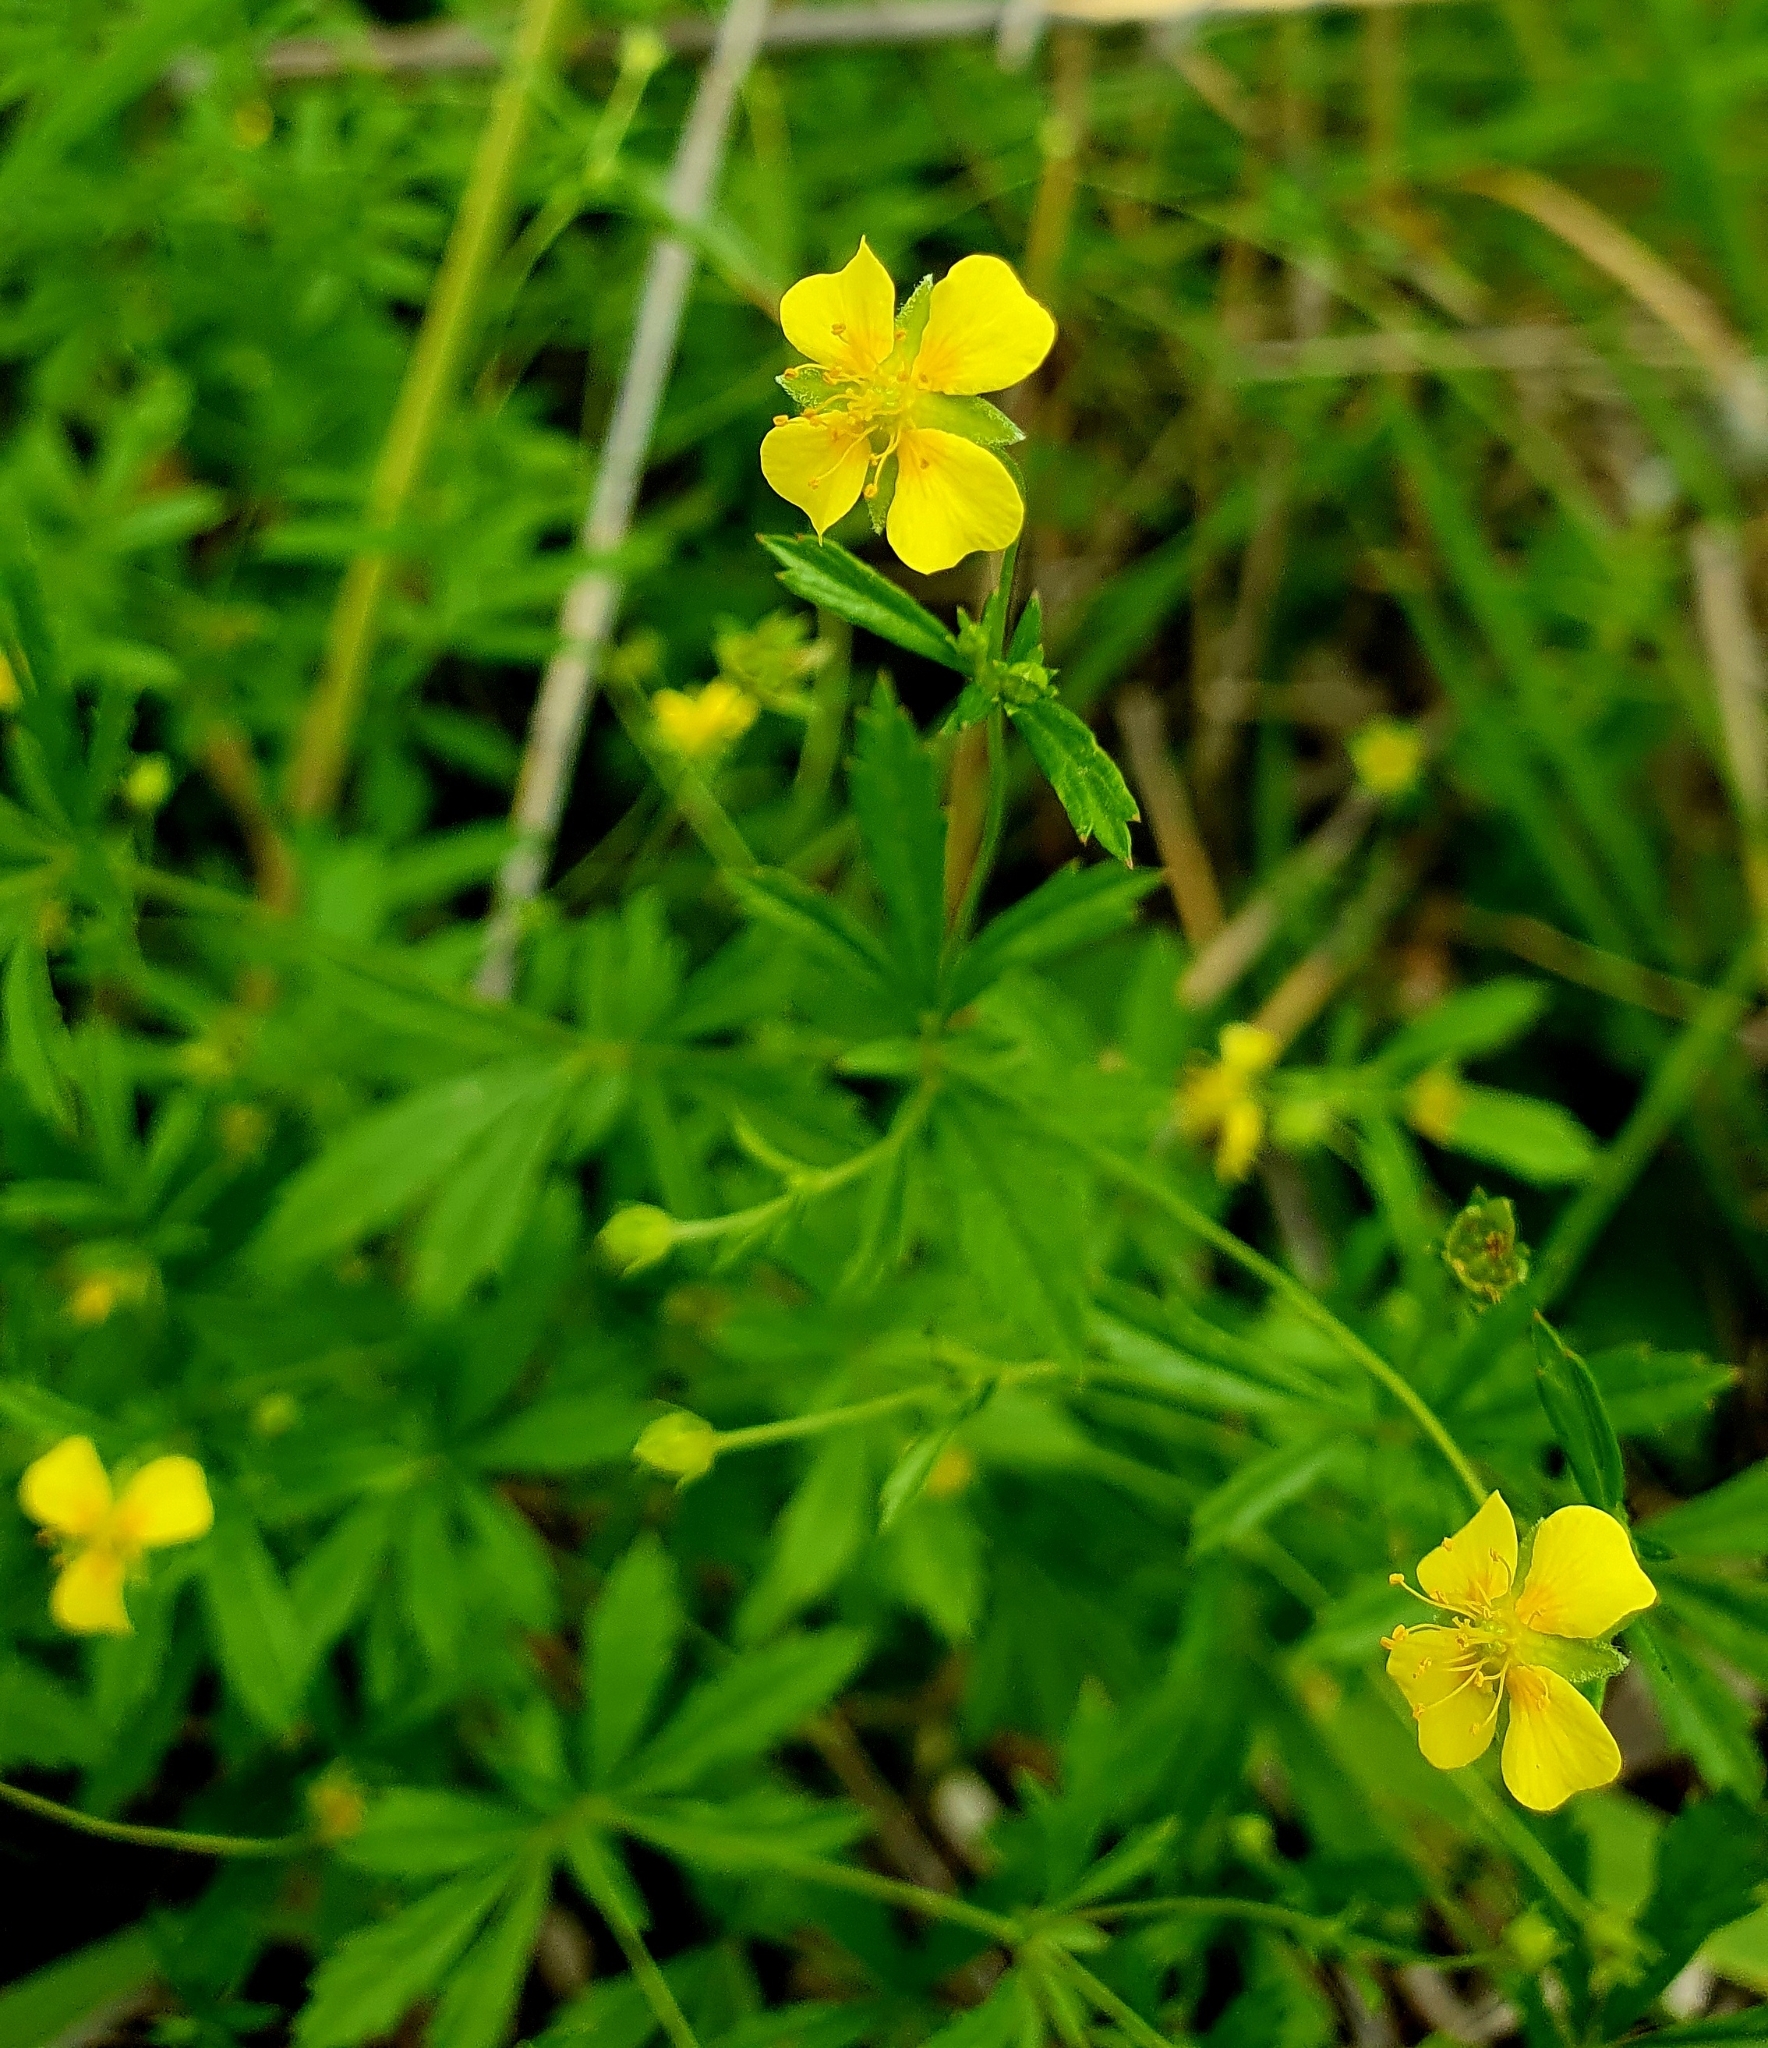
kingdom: Plantae
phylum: Tracheophyta
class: Magnoliopsida
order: Rosales
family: Rosaceae
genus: Potentilla
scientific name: Potentilla erecta
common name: Tormentil
